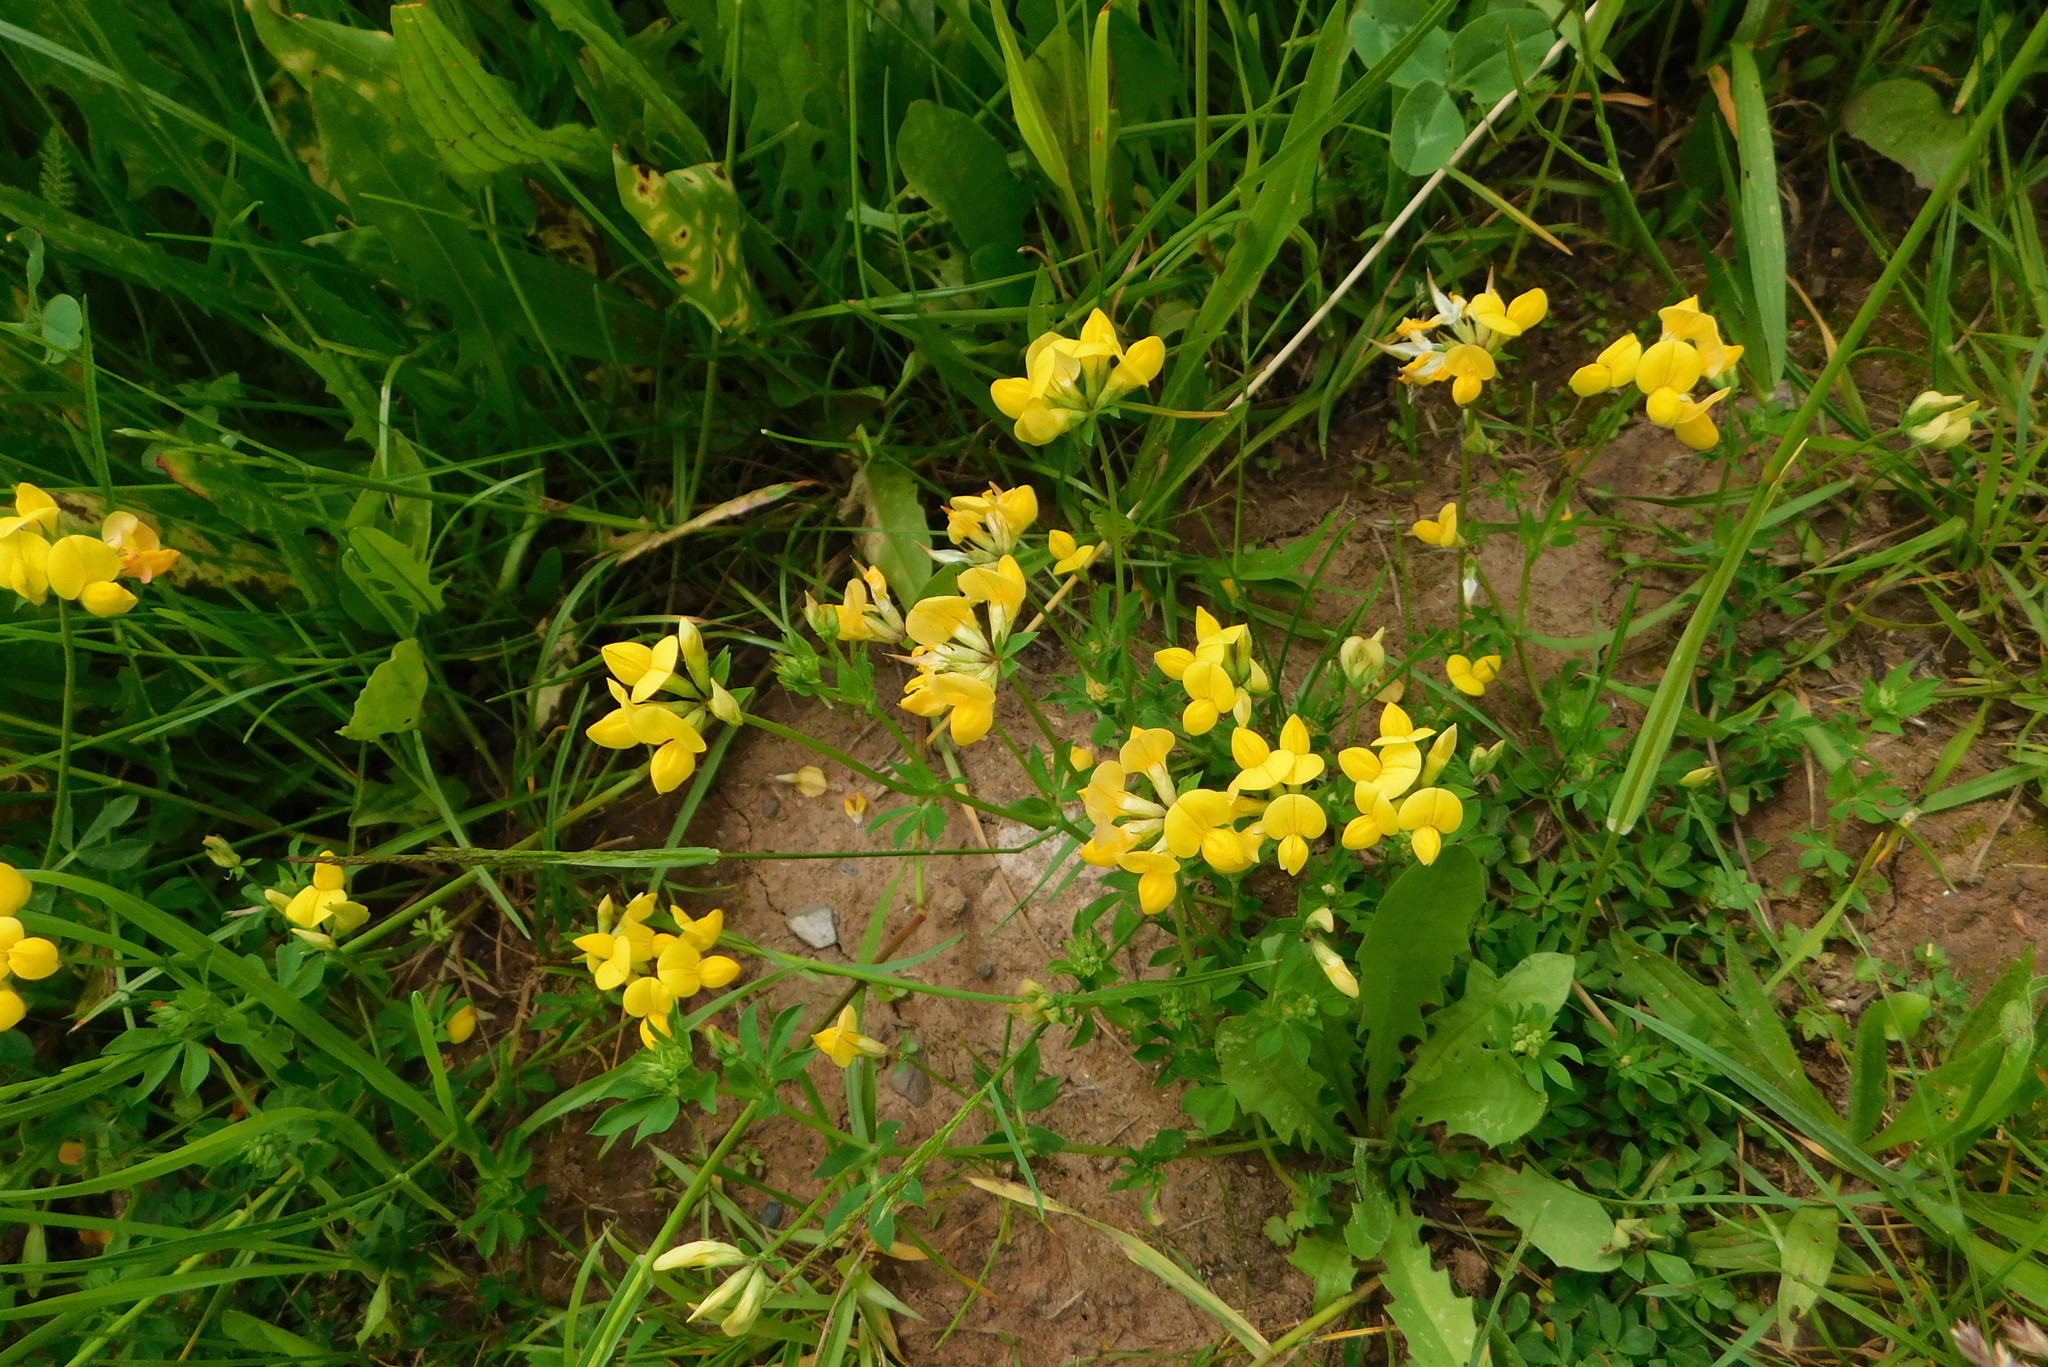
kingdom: Plantae
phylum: Tracheophyta
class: Magnoliopsida
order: Fabales
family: Fabaceae
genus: Lotus
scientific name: Lotus corniculatus
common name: Common bird's-foot-trefoil
